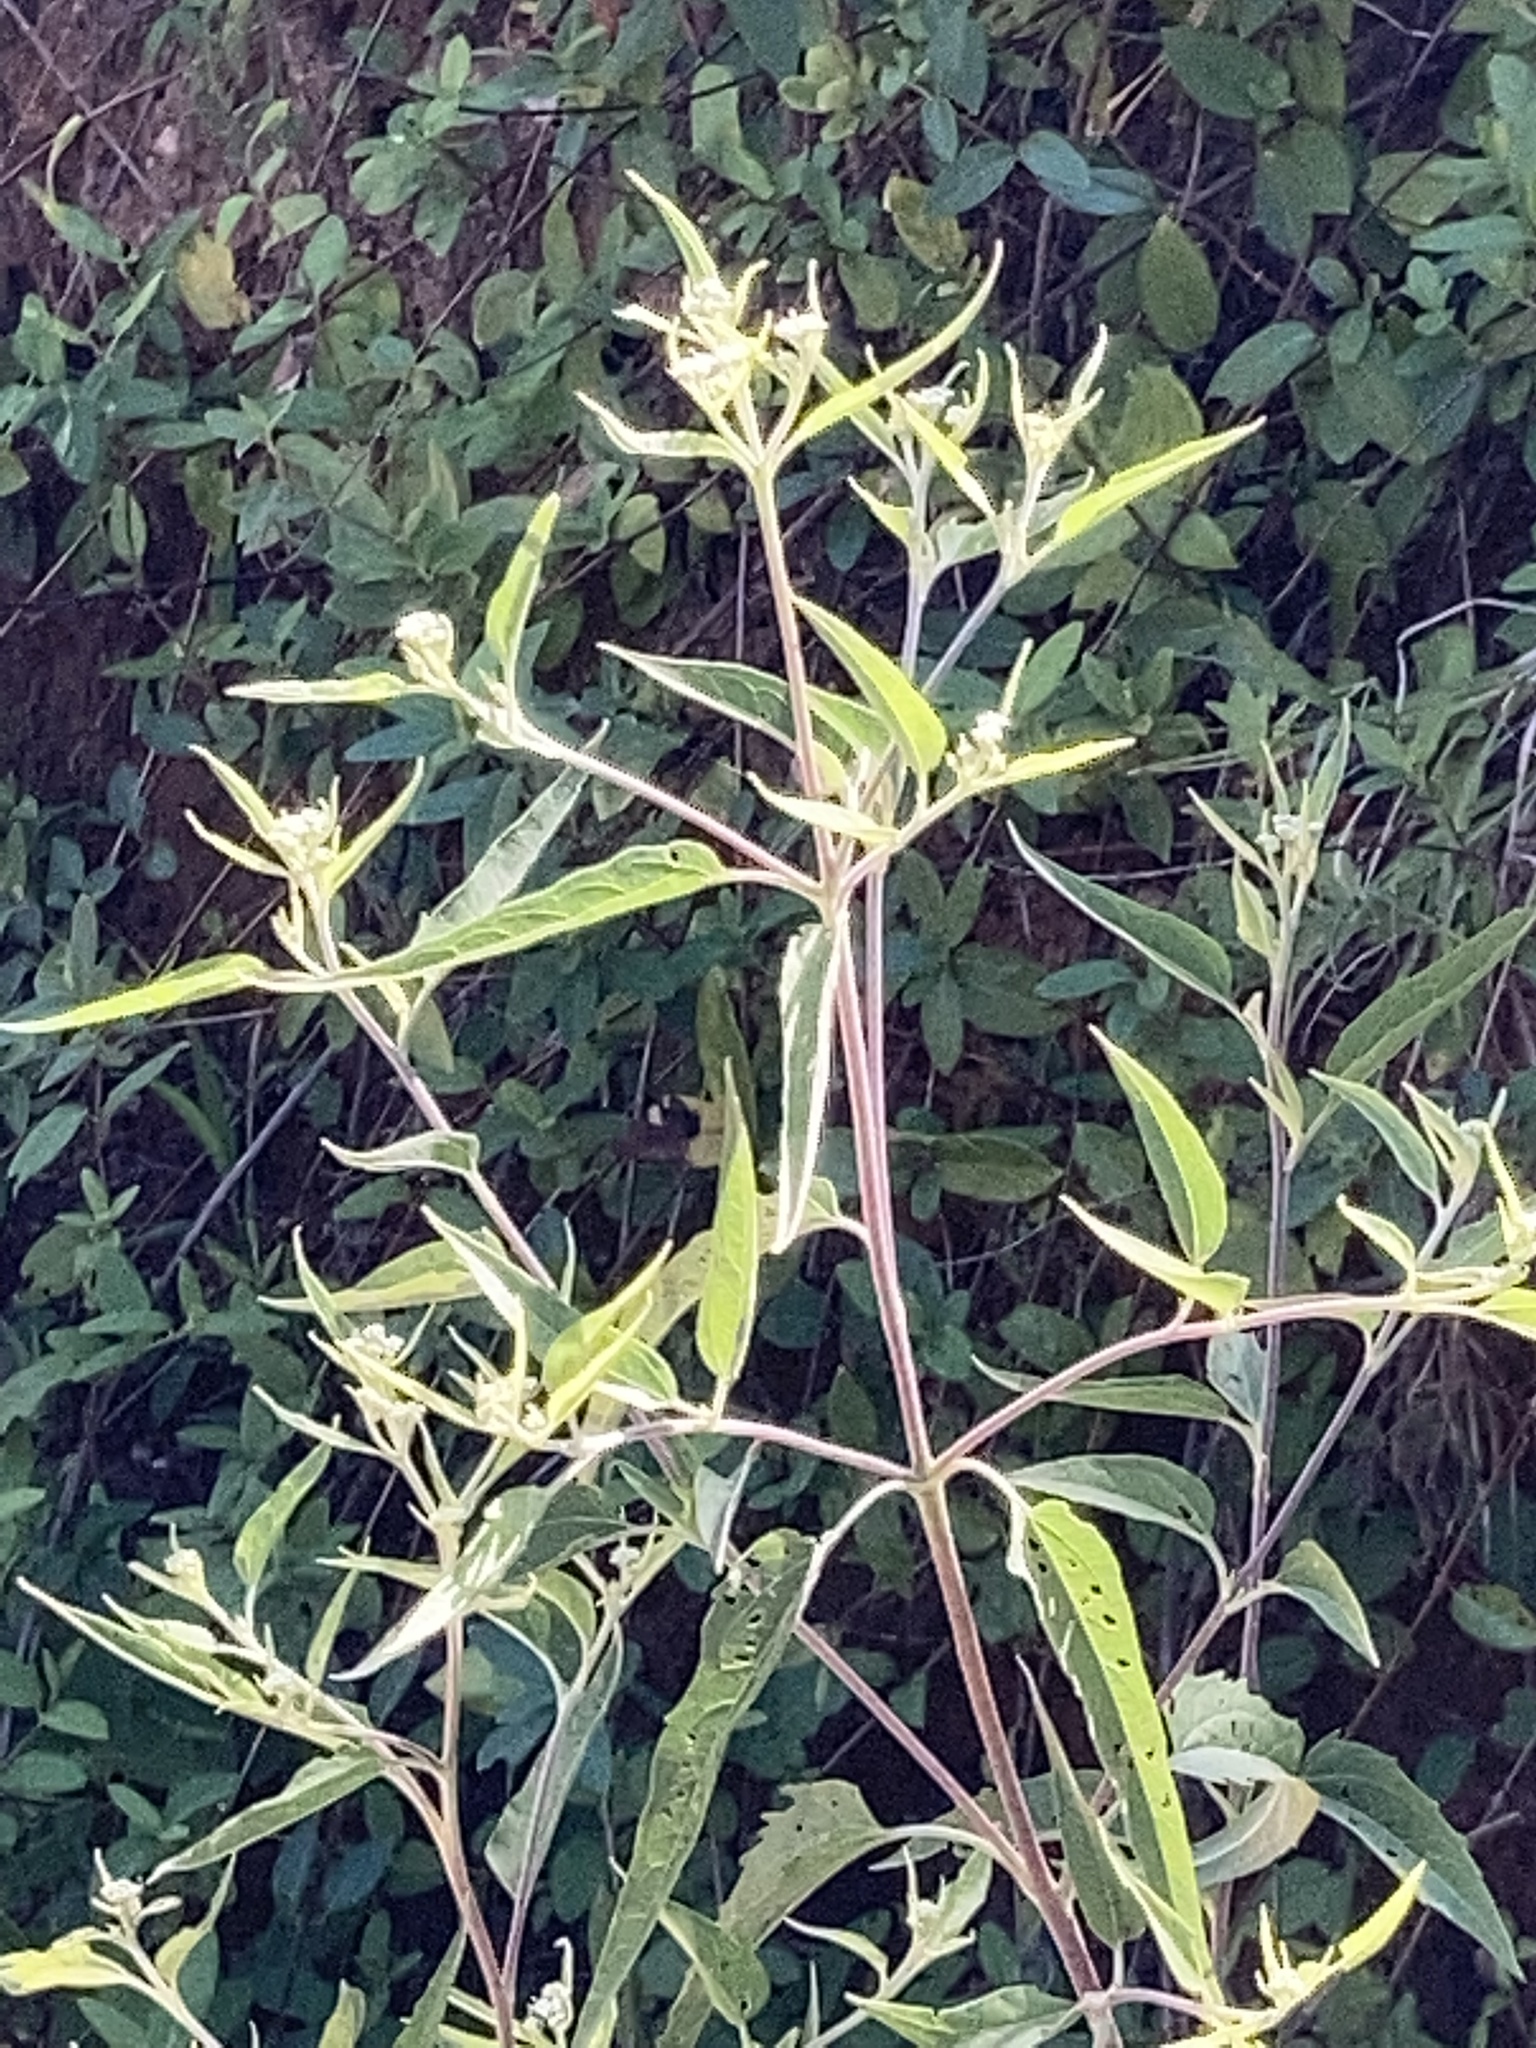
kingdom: Plantae
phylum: Tracheophyta
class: Magnoliopsida
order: Asterales
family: Asteraceae
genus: Eupatorium
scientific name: Eupatorium serotinum
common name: Late boneset
